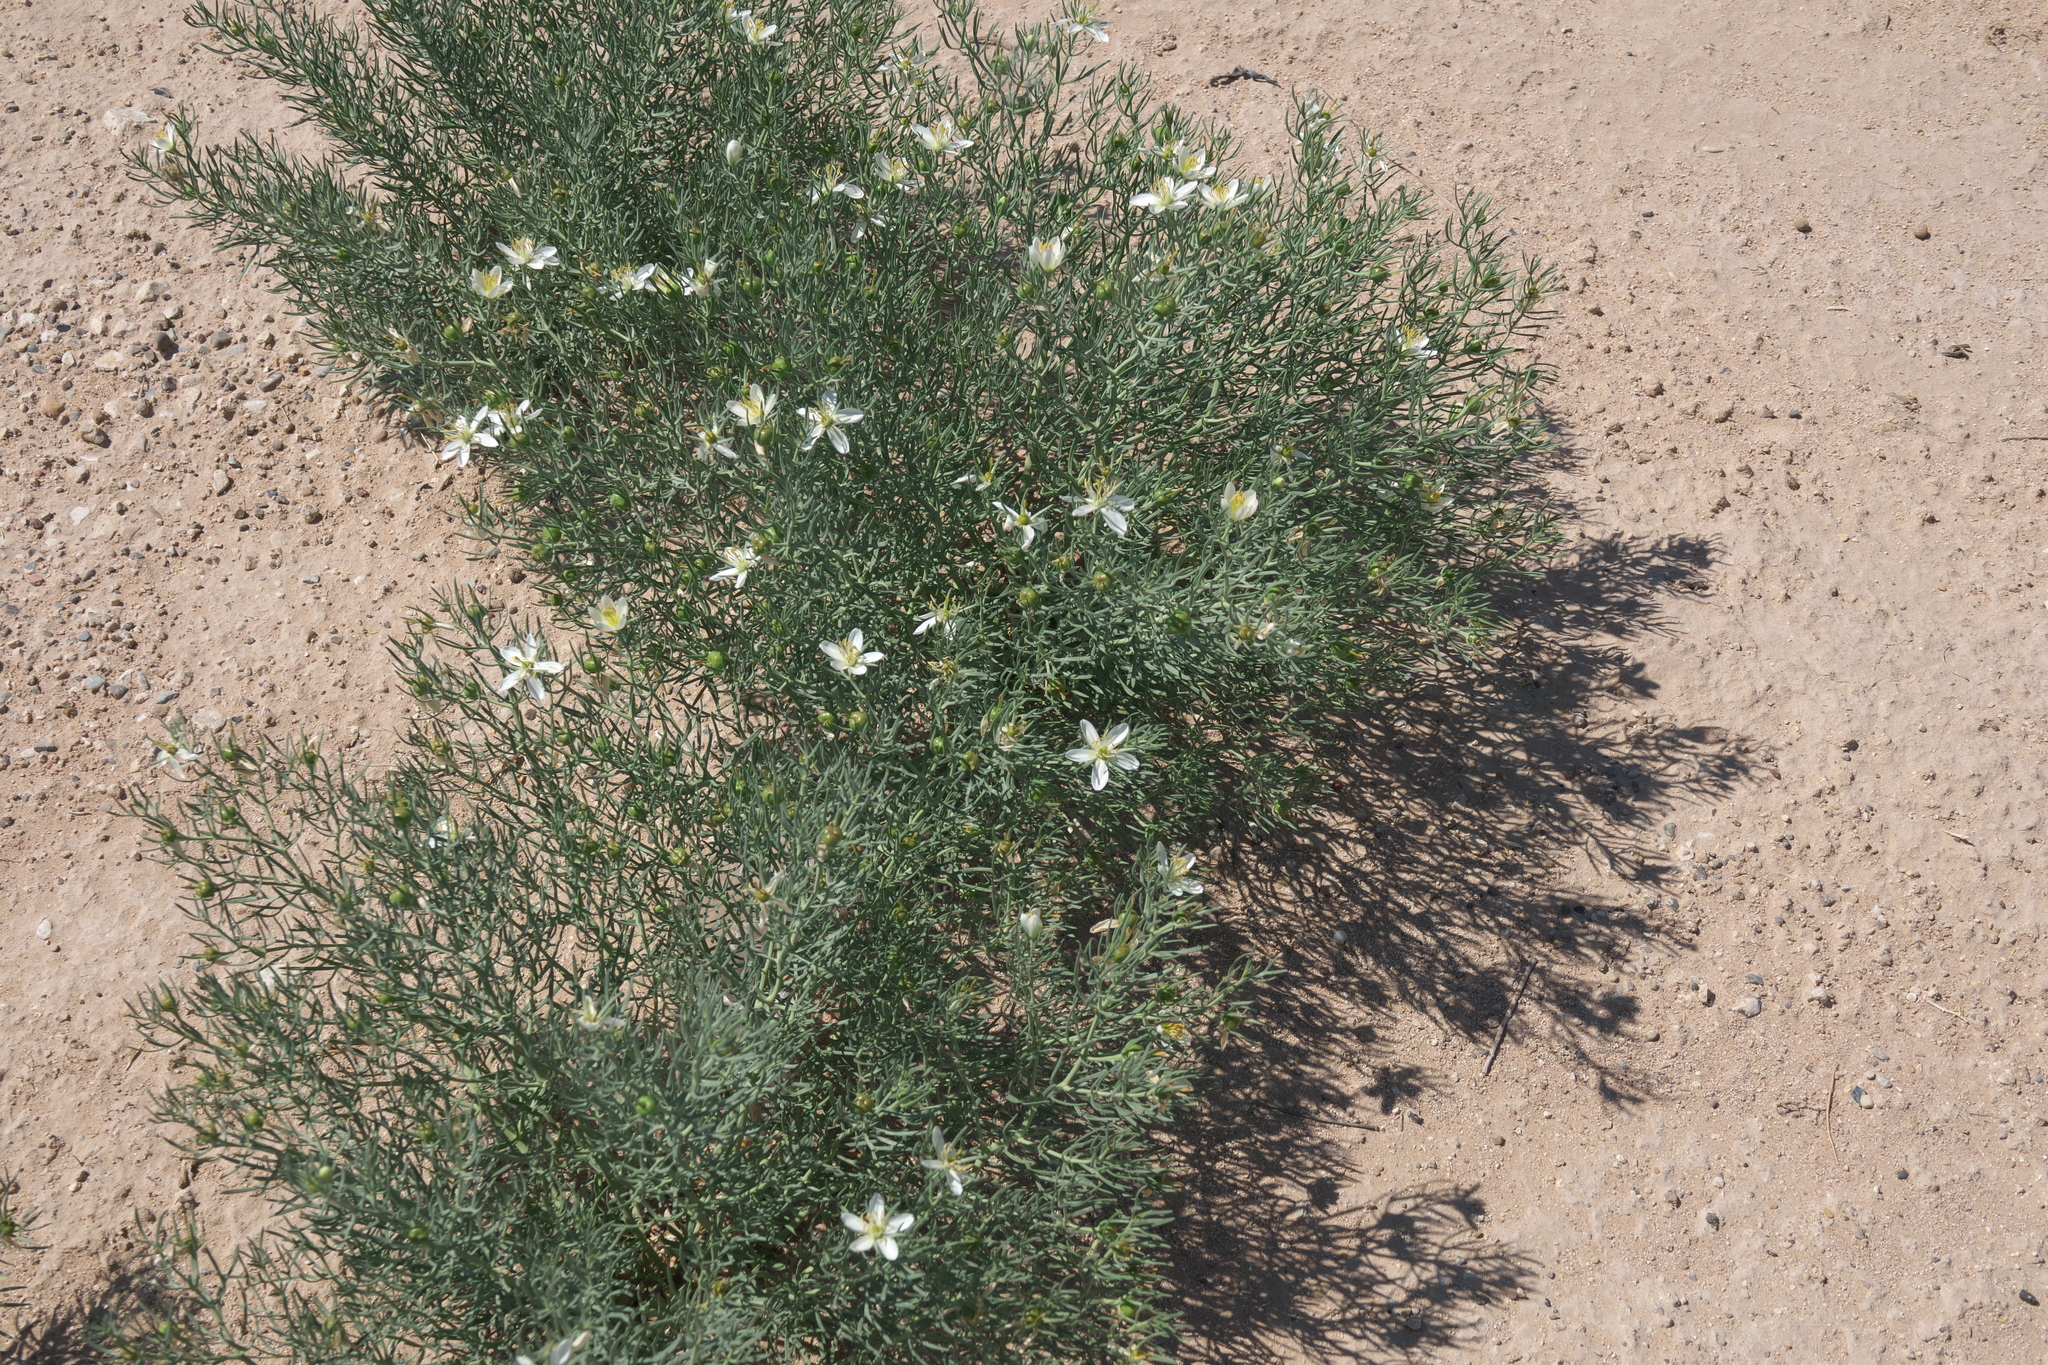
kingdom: Plantae
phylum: Tracheophyta
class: Magnoliopsida
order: Sapindales
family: Tetradiclidaceae
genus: Peganum
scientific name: Peganum harmala
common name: Harmal peganum
